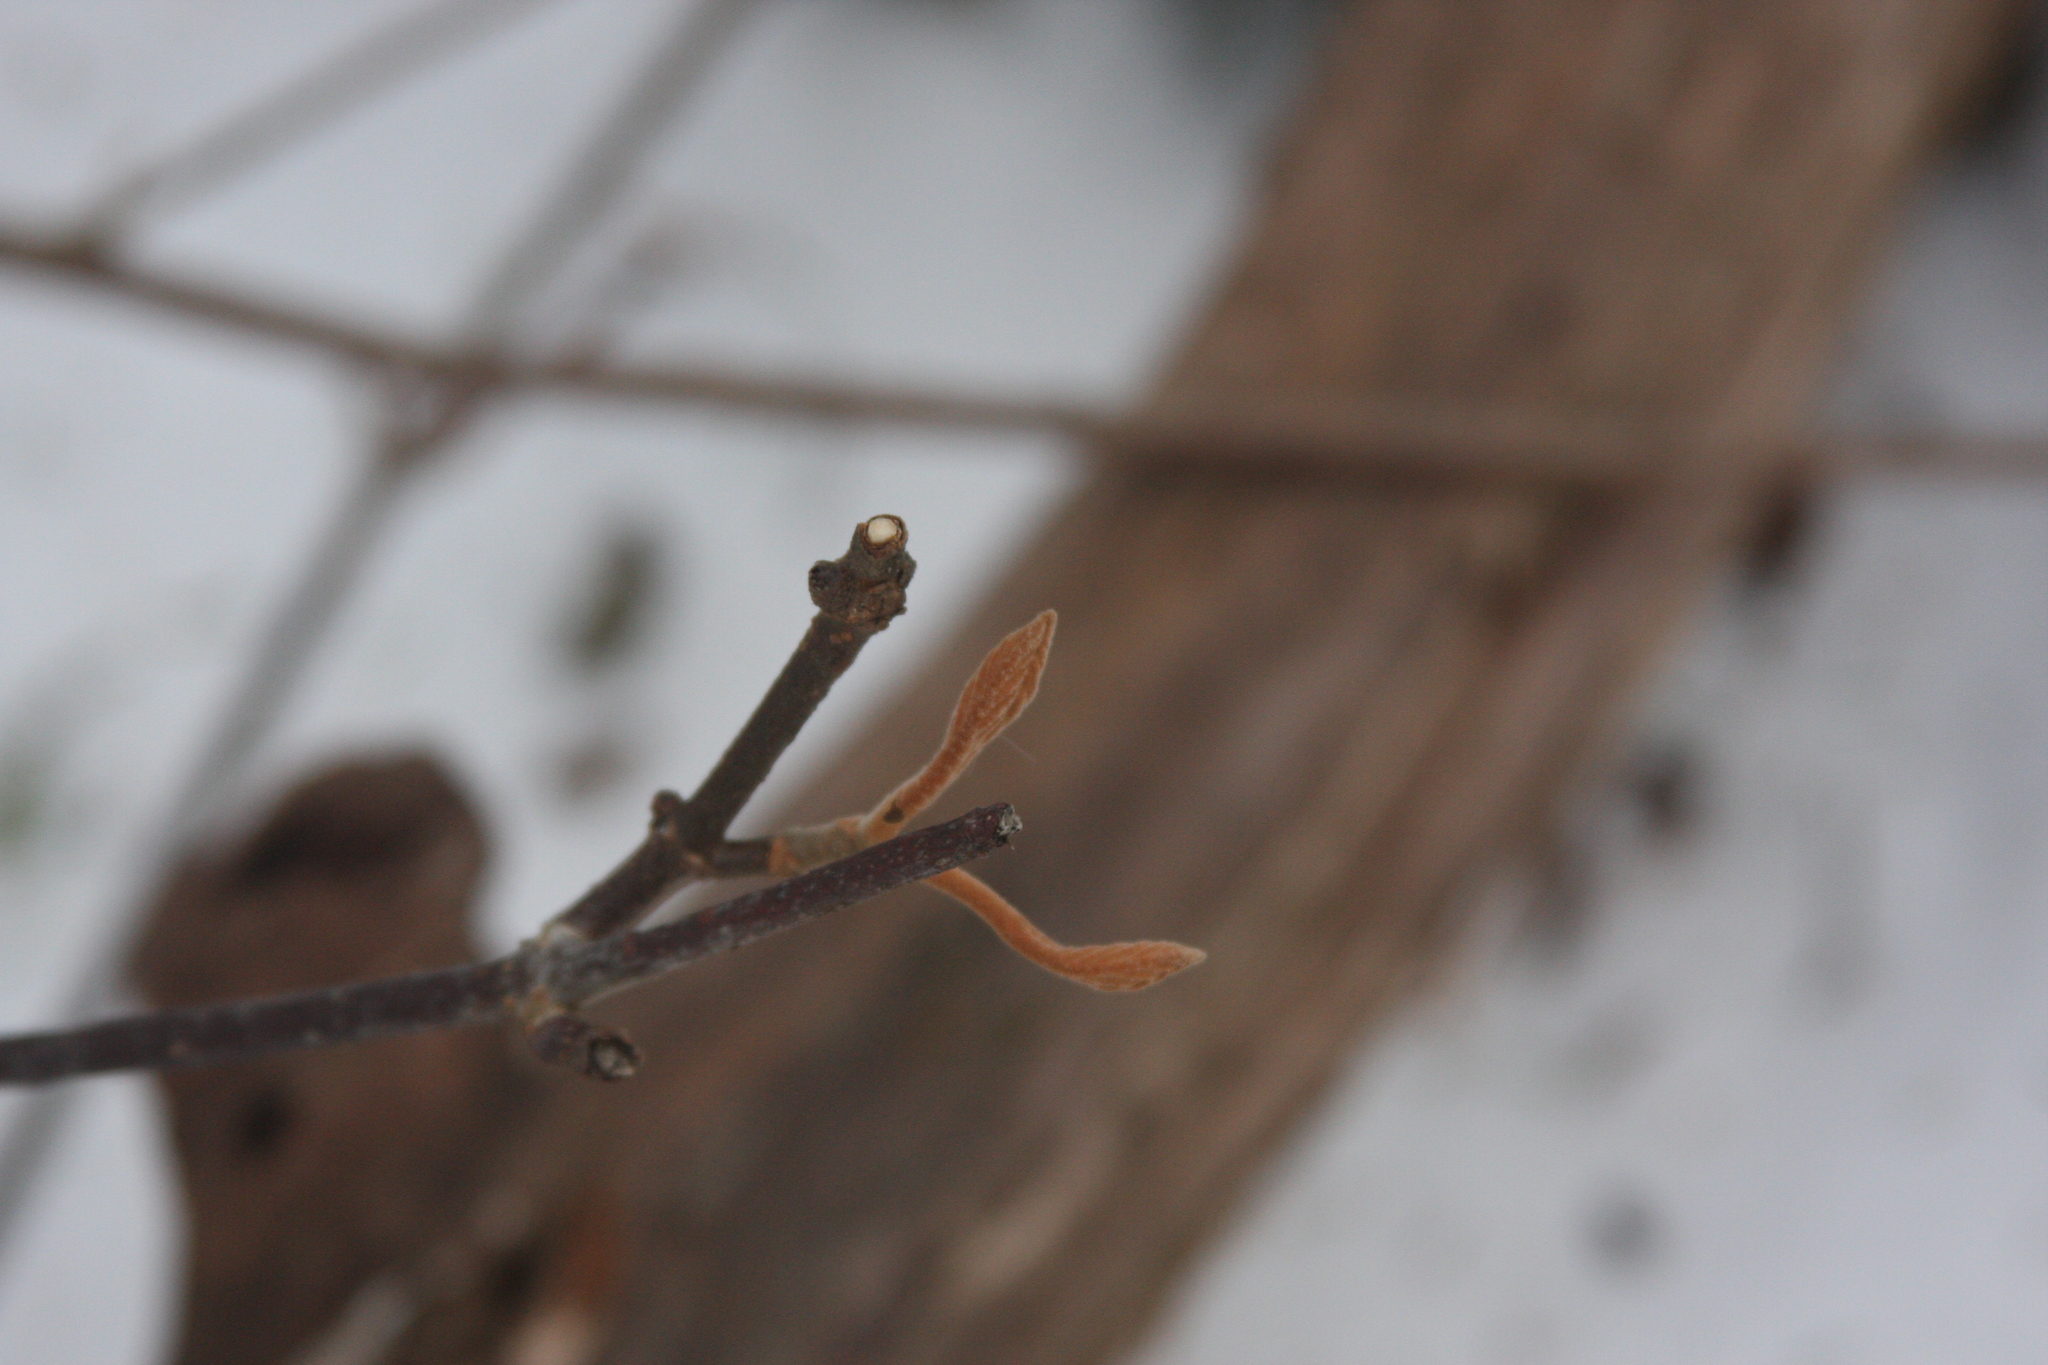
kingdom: Plantae
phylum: Tracheophyta
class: Magnoliopsida
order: Dipsacales
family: Viburnaceae
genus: Viburnum
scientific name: Viburnum lantanoides
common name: Hobblebush
